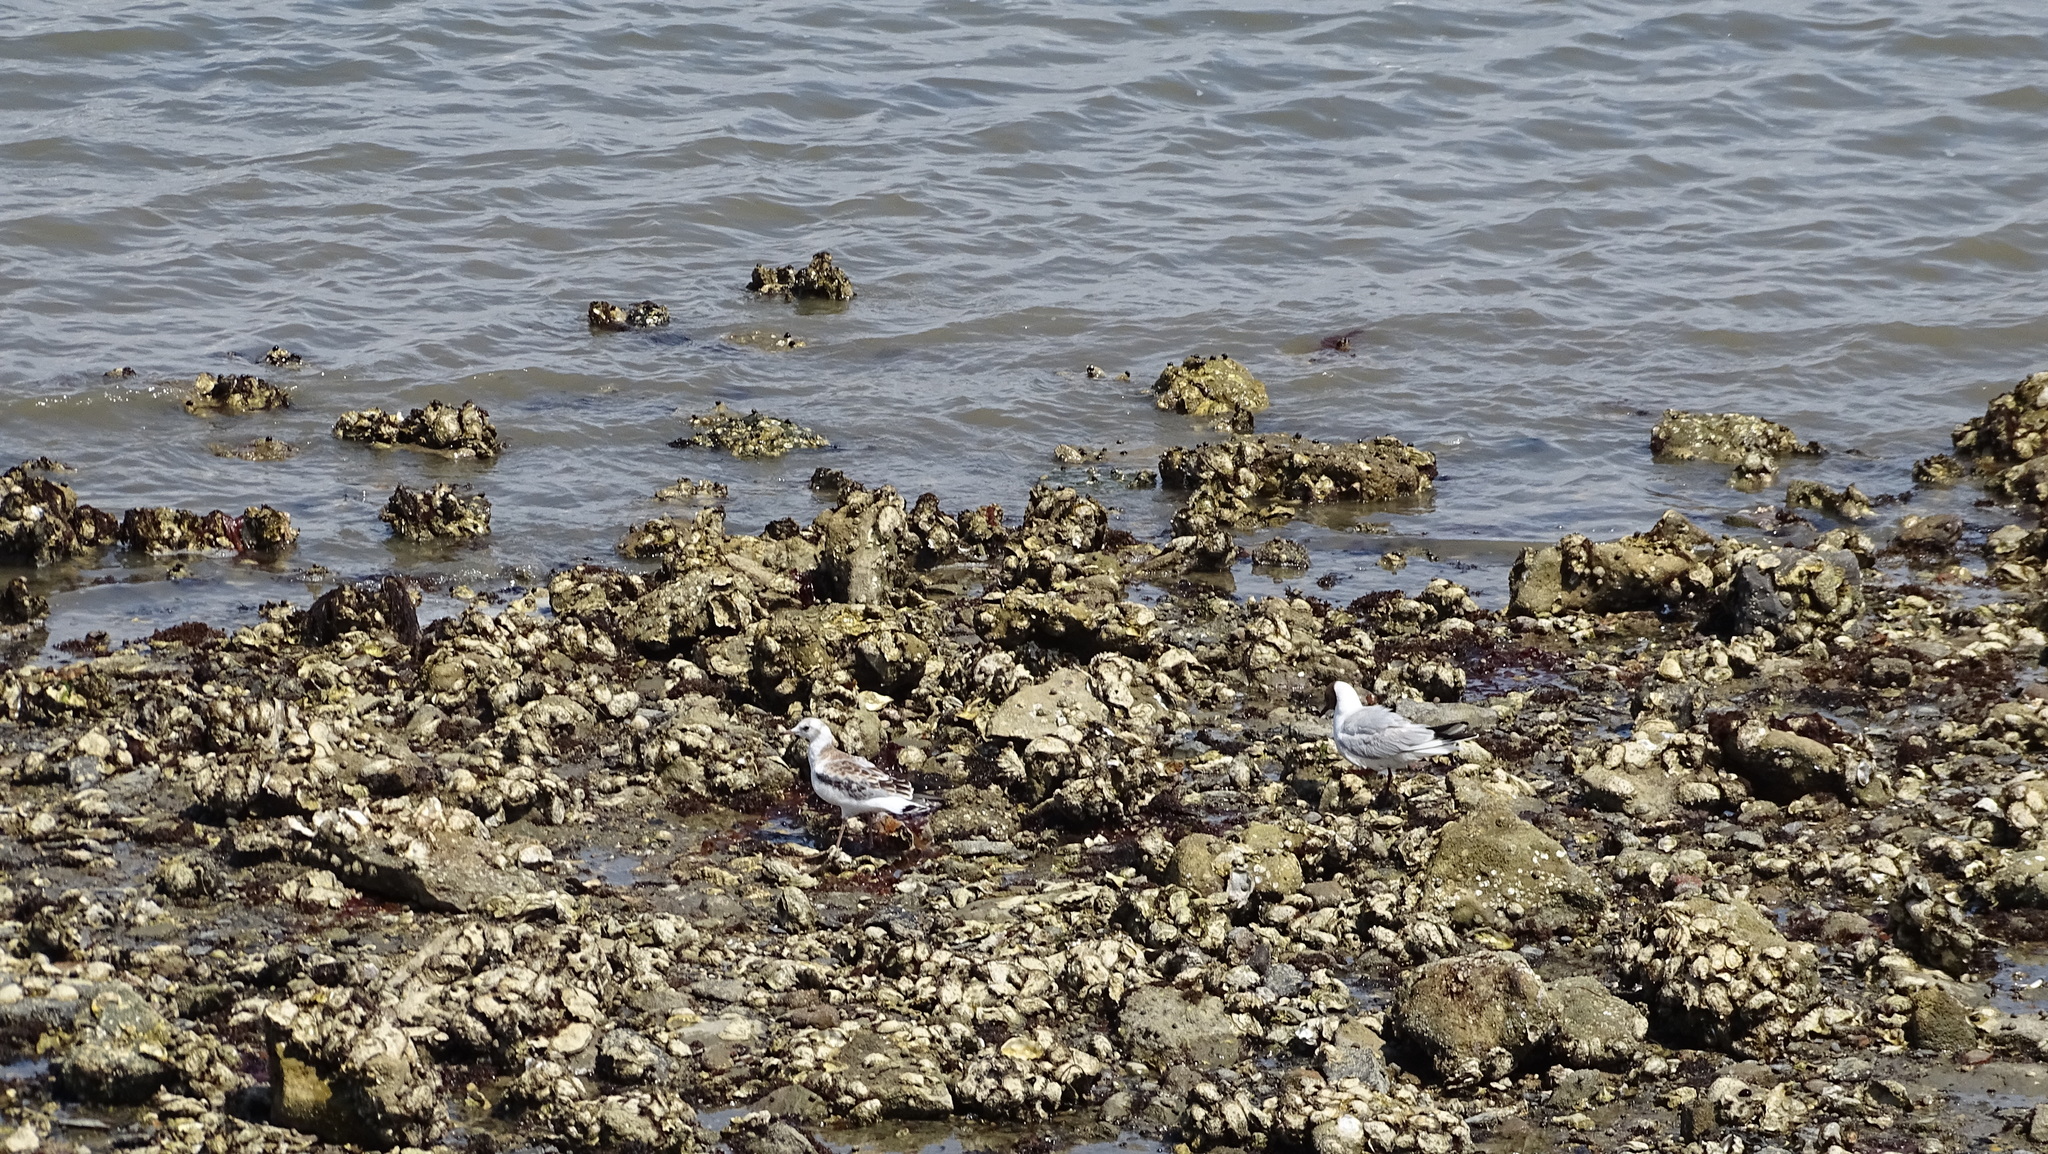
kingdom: Animalia
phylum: Chordata
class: Aves
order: Charadriiformes
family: Laridae
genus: Chroicocephalus
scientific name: Chroicocephalus ridibundus
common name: Black-headed gull
